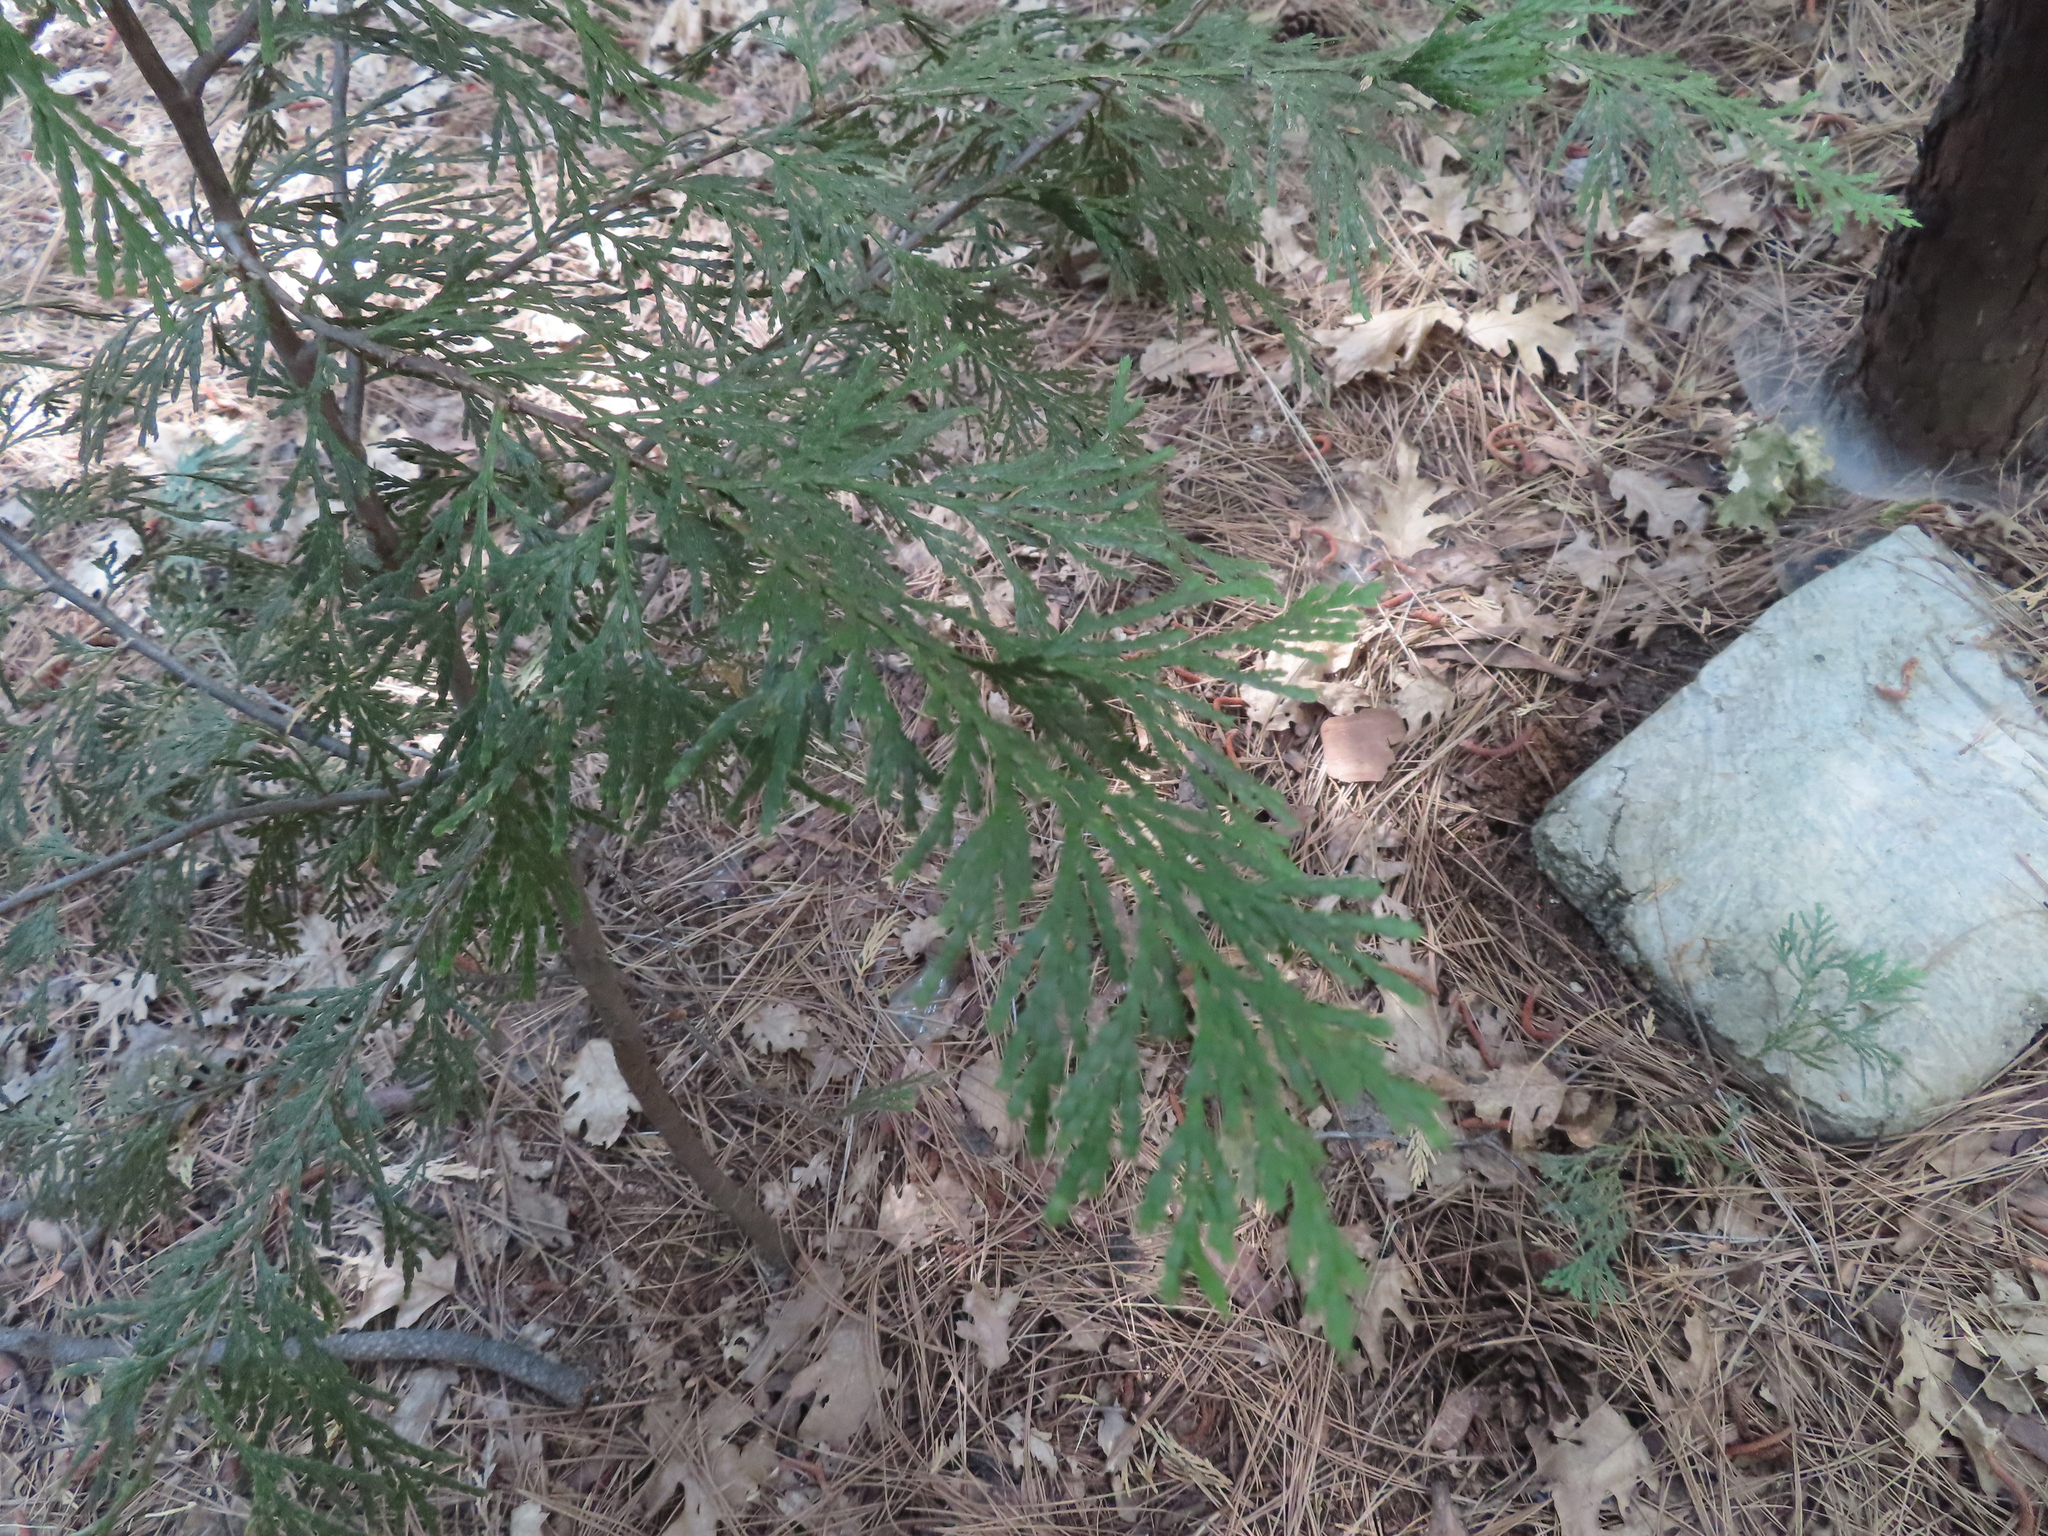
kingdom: Plantae
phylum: Tracheophyta
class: Pinopsida
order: Pinales
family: Cupressaceae
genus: Calocedrus
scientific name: Calocedrus decurrens
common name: Californian incense-cedar
